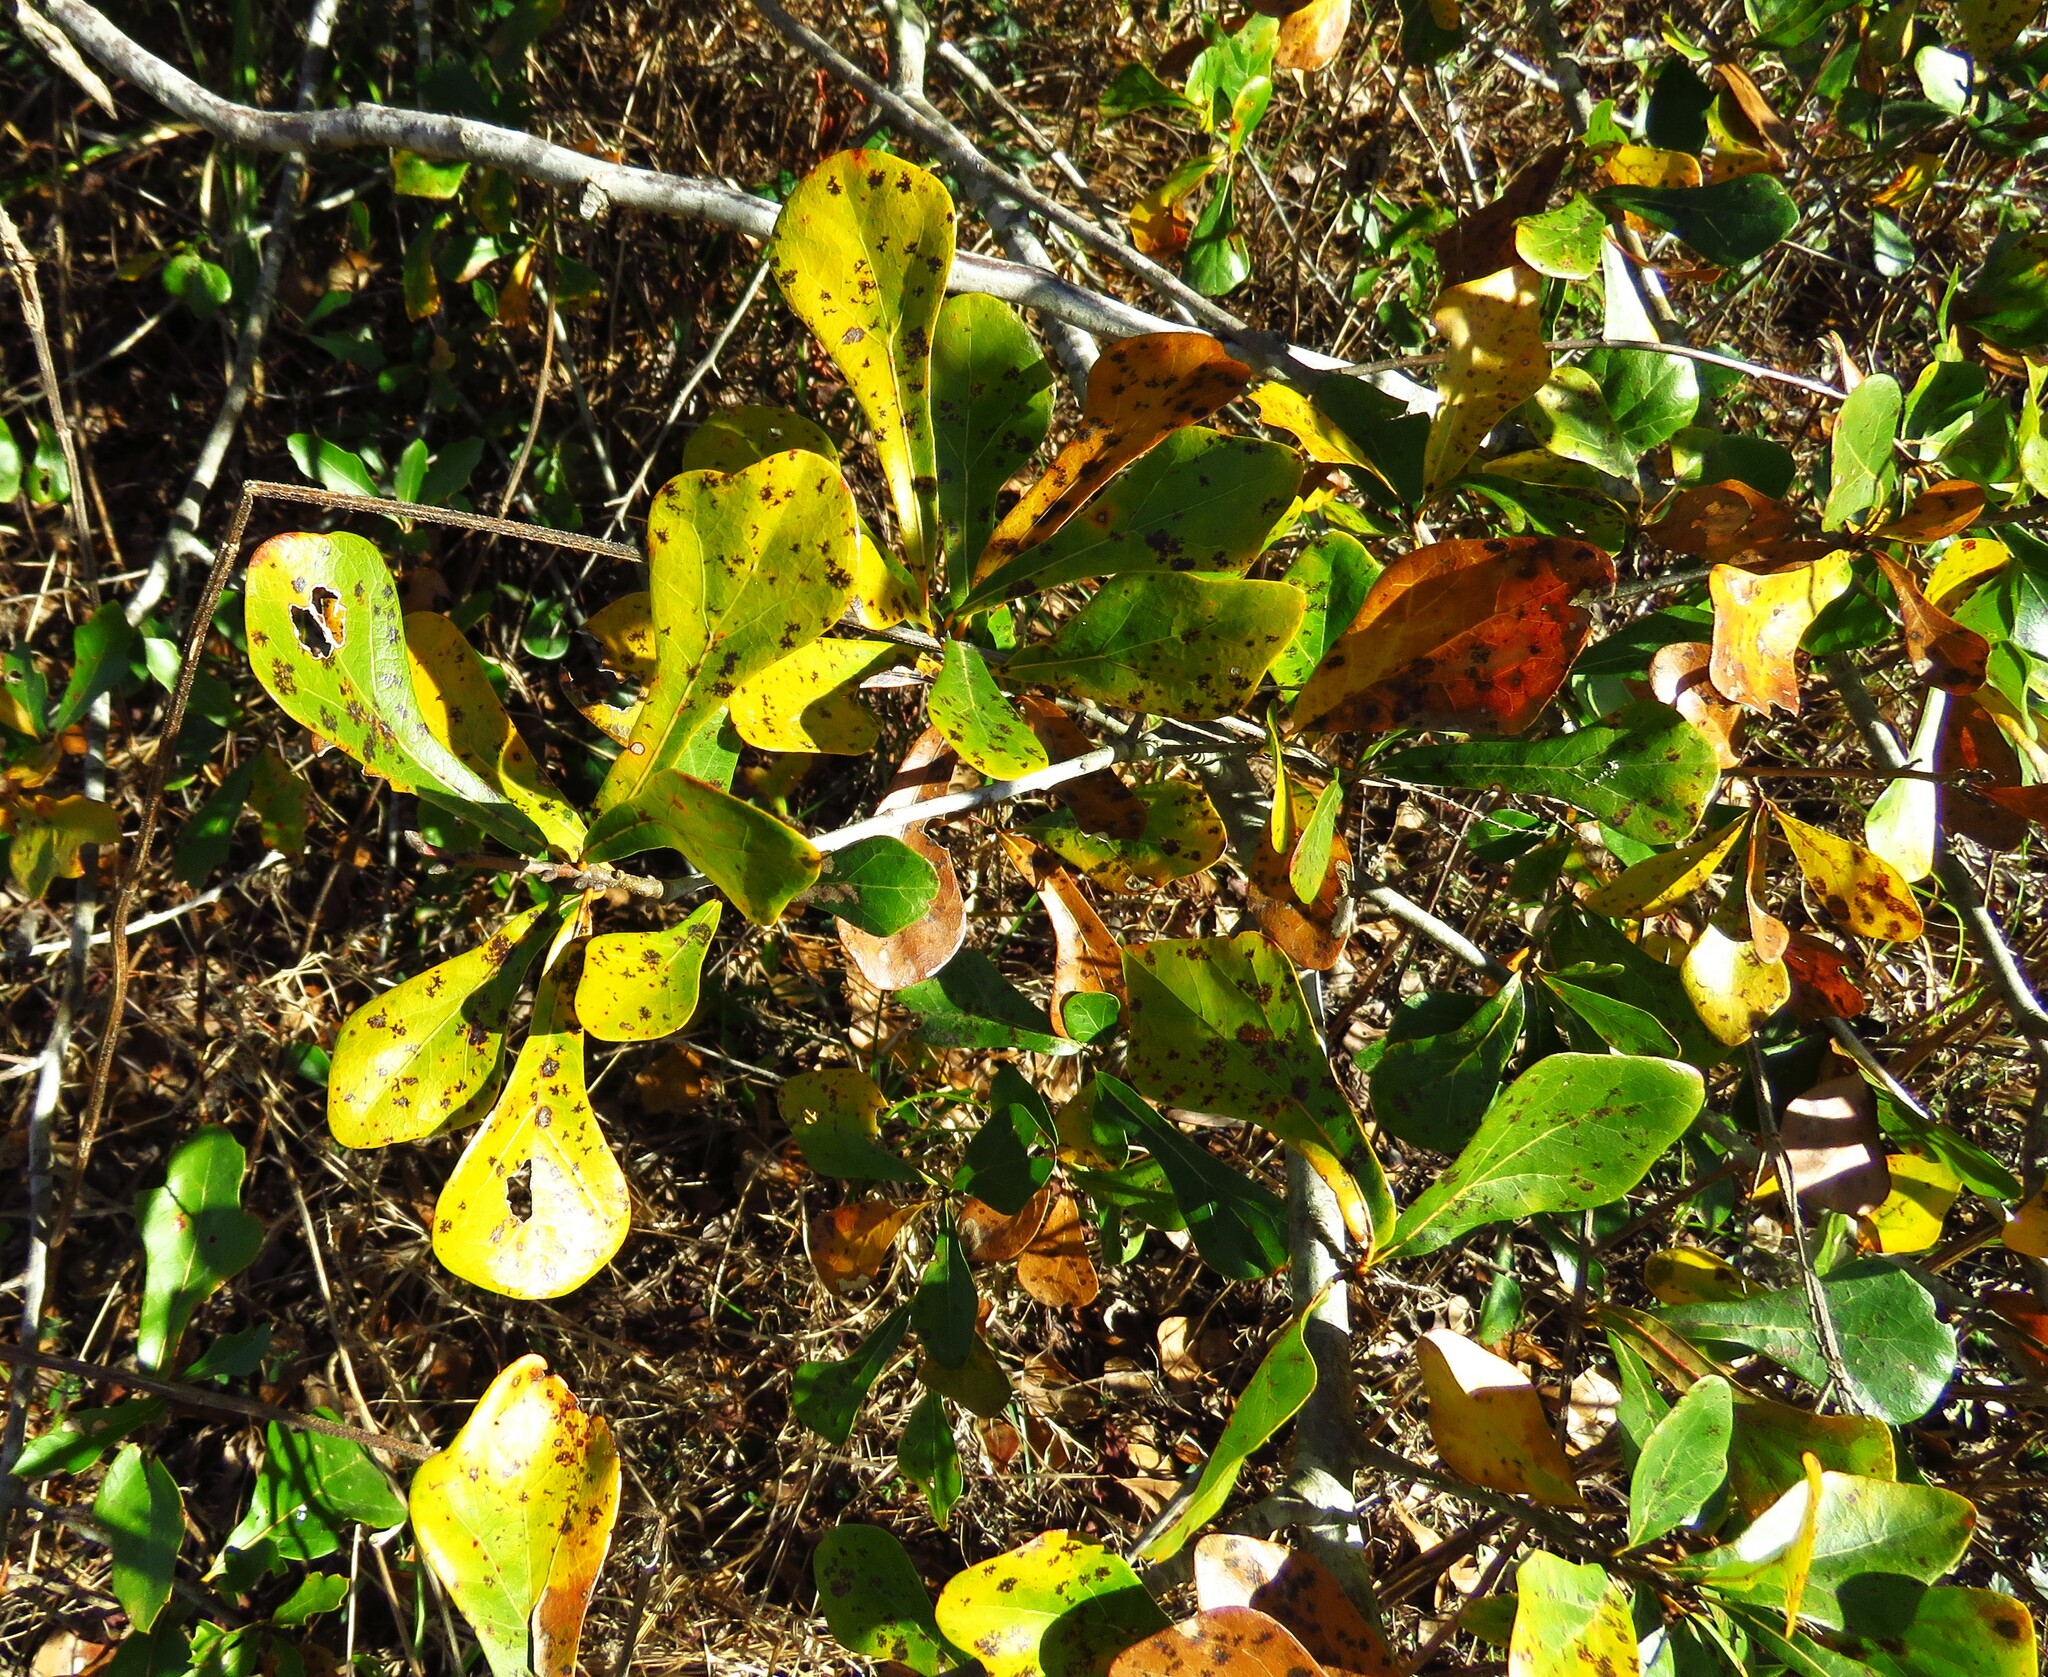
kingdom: Plantae
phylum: Tracheophyta
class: Magnoliopsida
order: Fagales
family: Fagaceae
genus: Quercus
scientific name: Quercus nigra
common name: Water oak
